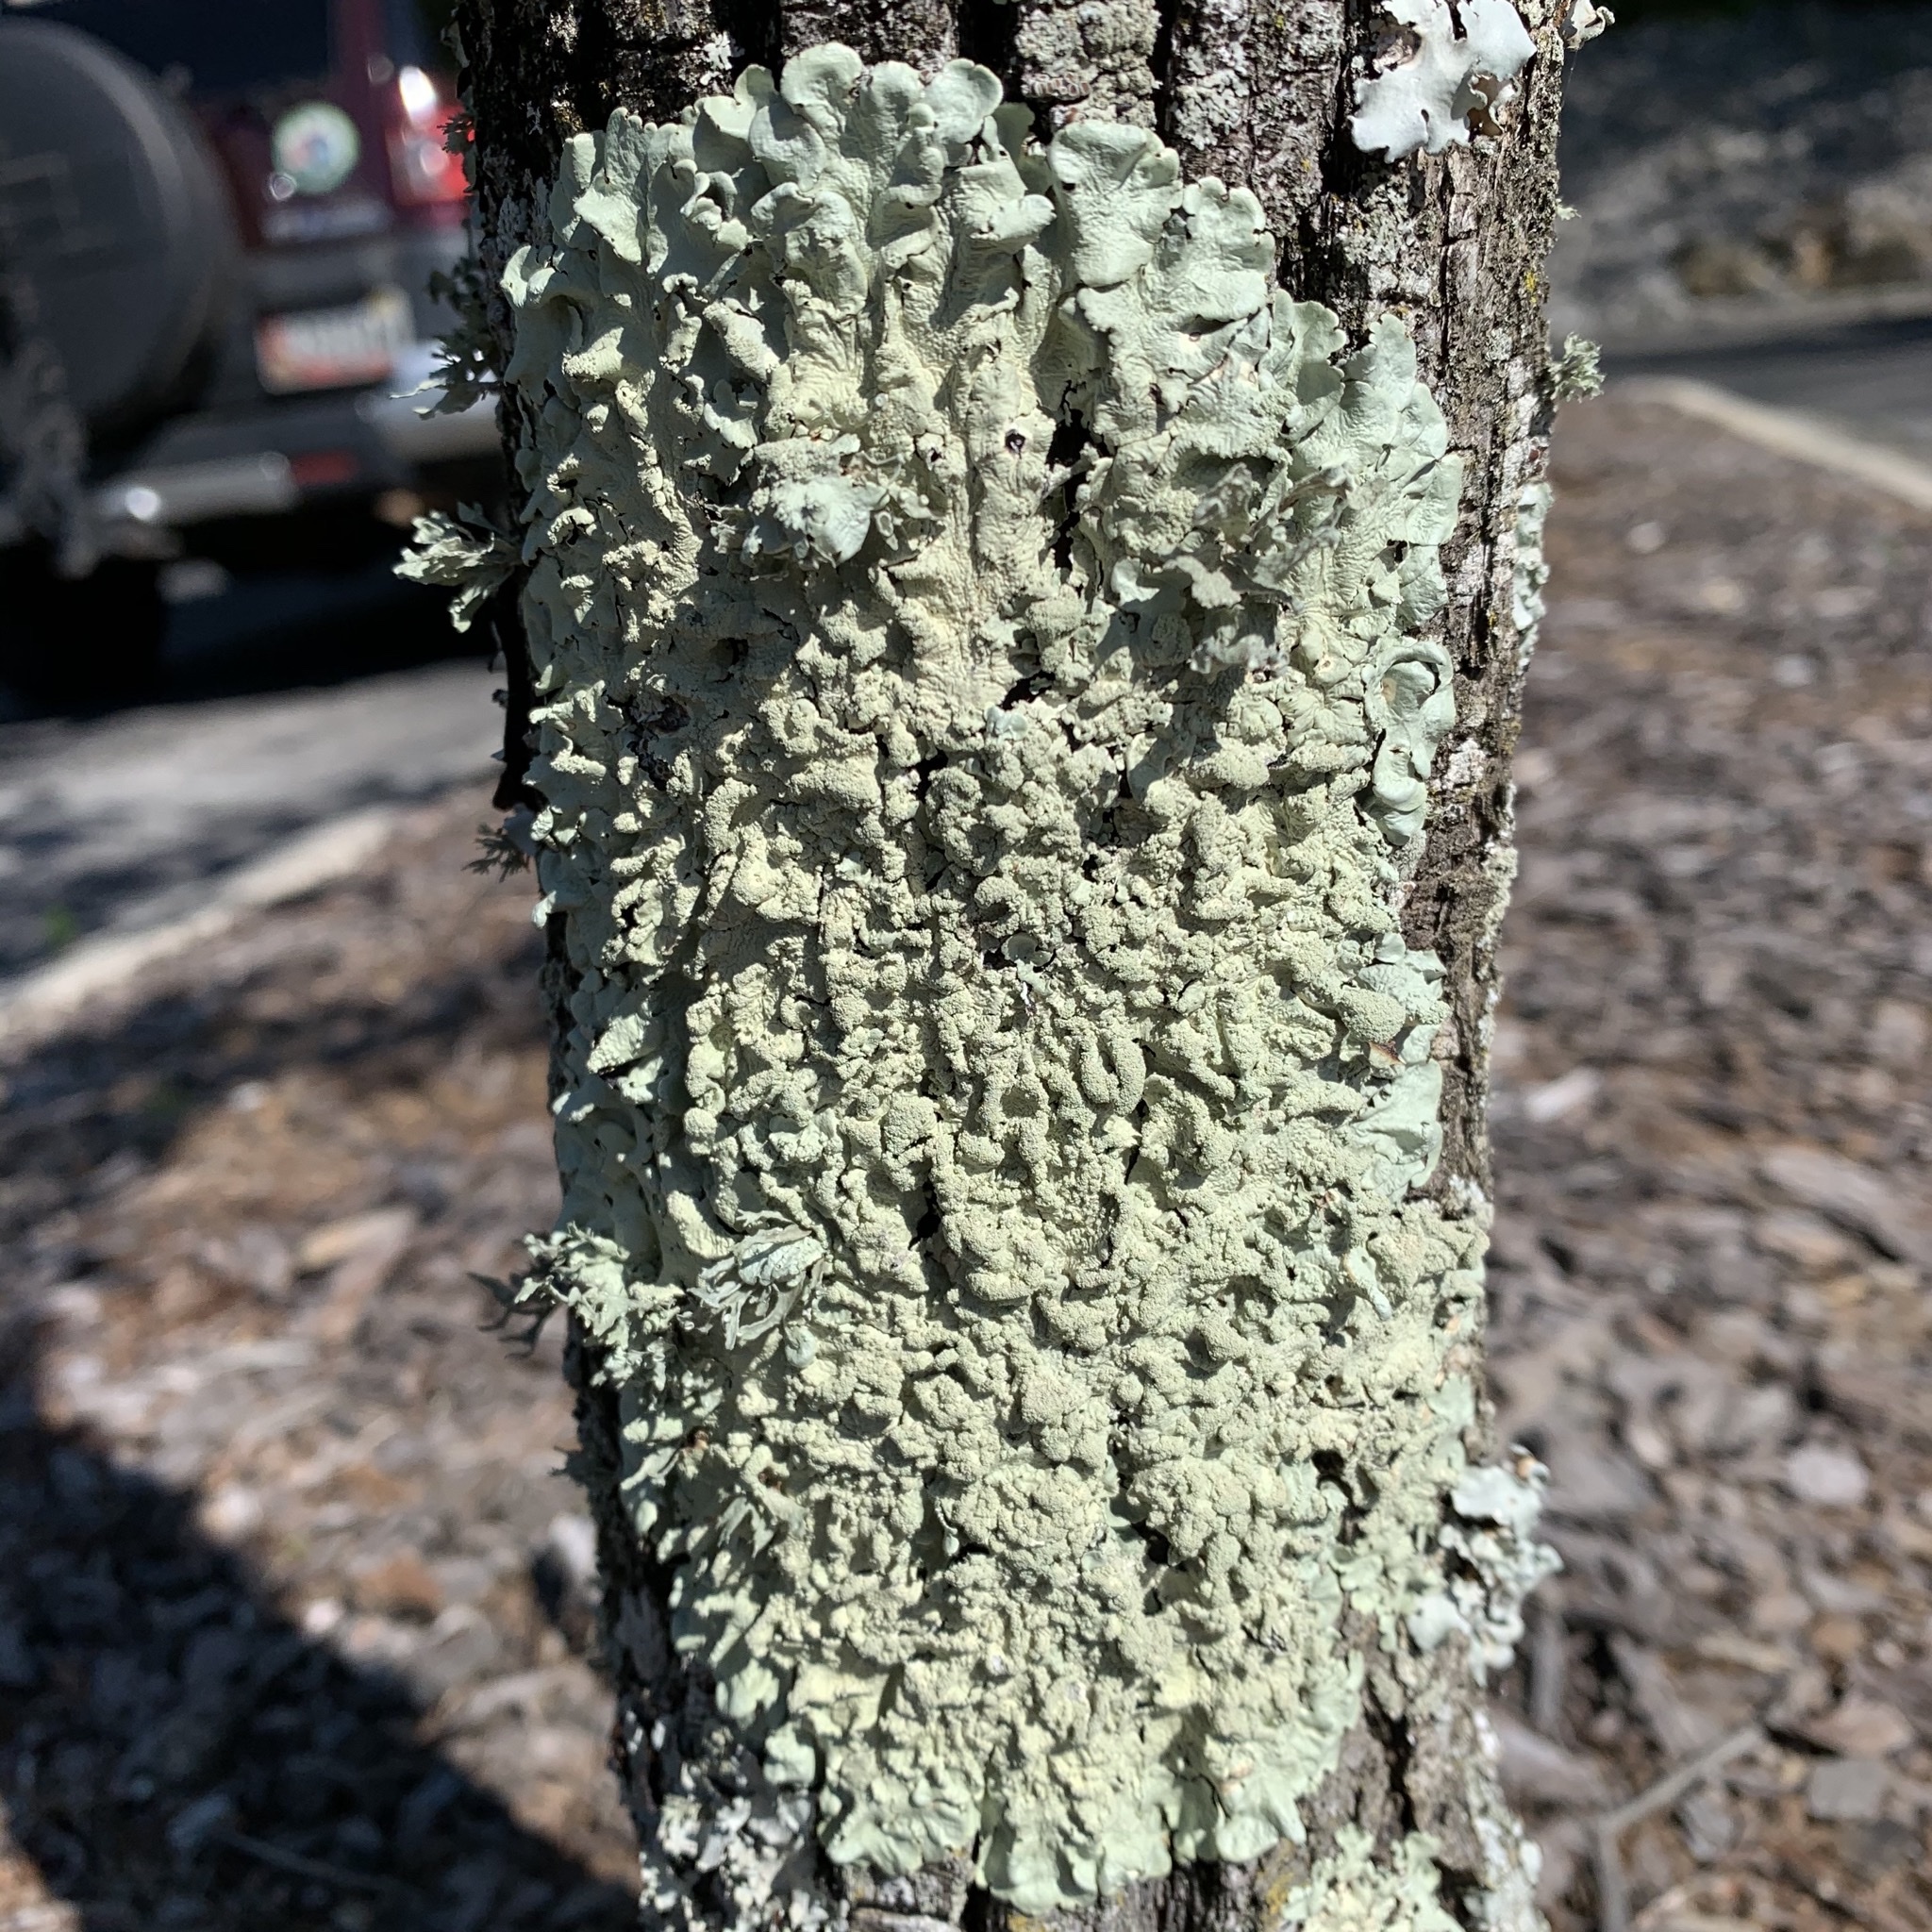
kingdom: Fungi
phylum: Ascomycota
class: Lecanoromycetes
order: Lecanorales
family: Parmeliaceae
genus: Flavoparmelia
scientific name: Flavoparmelia caperata
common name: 40-mile per hour lichen
